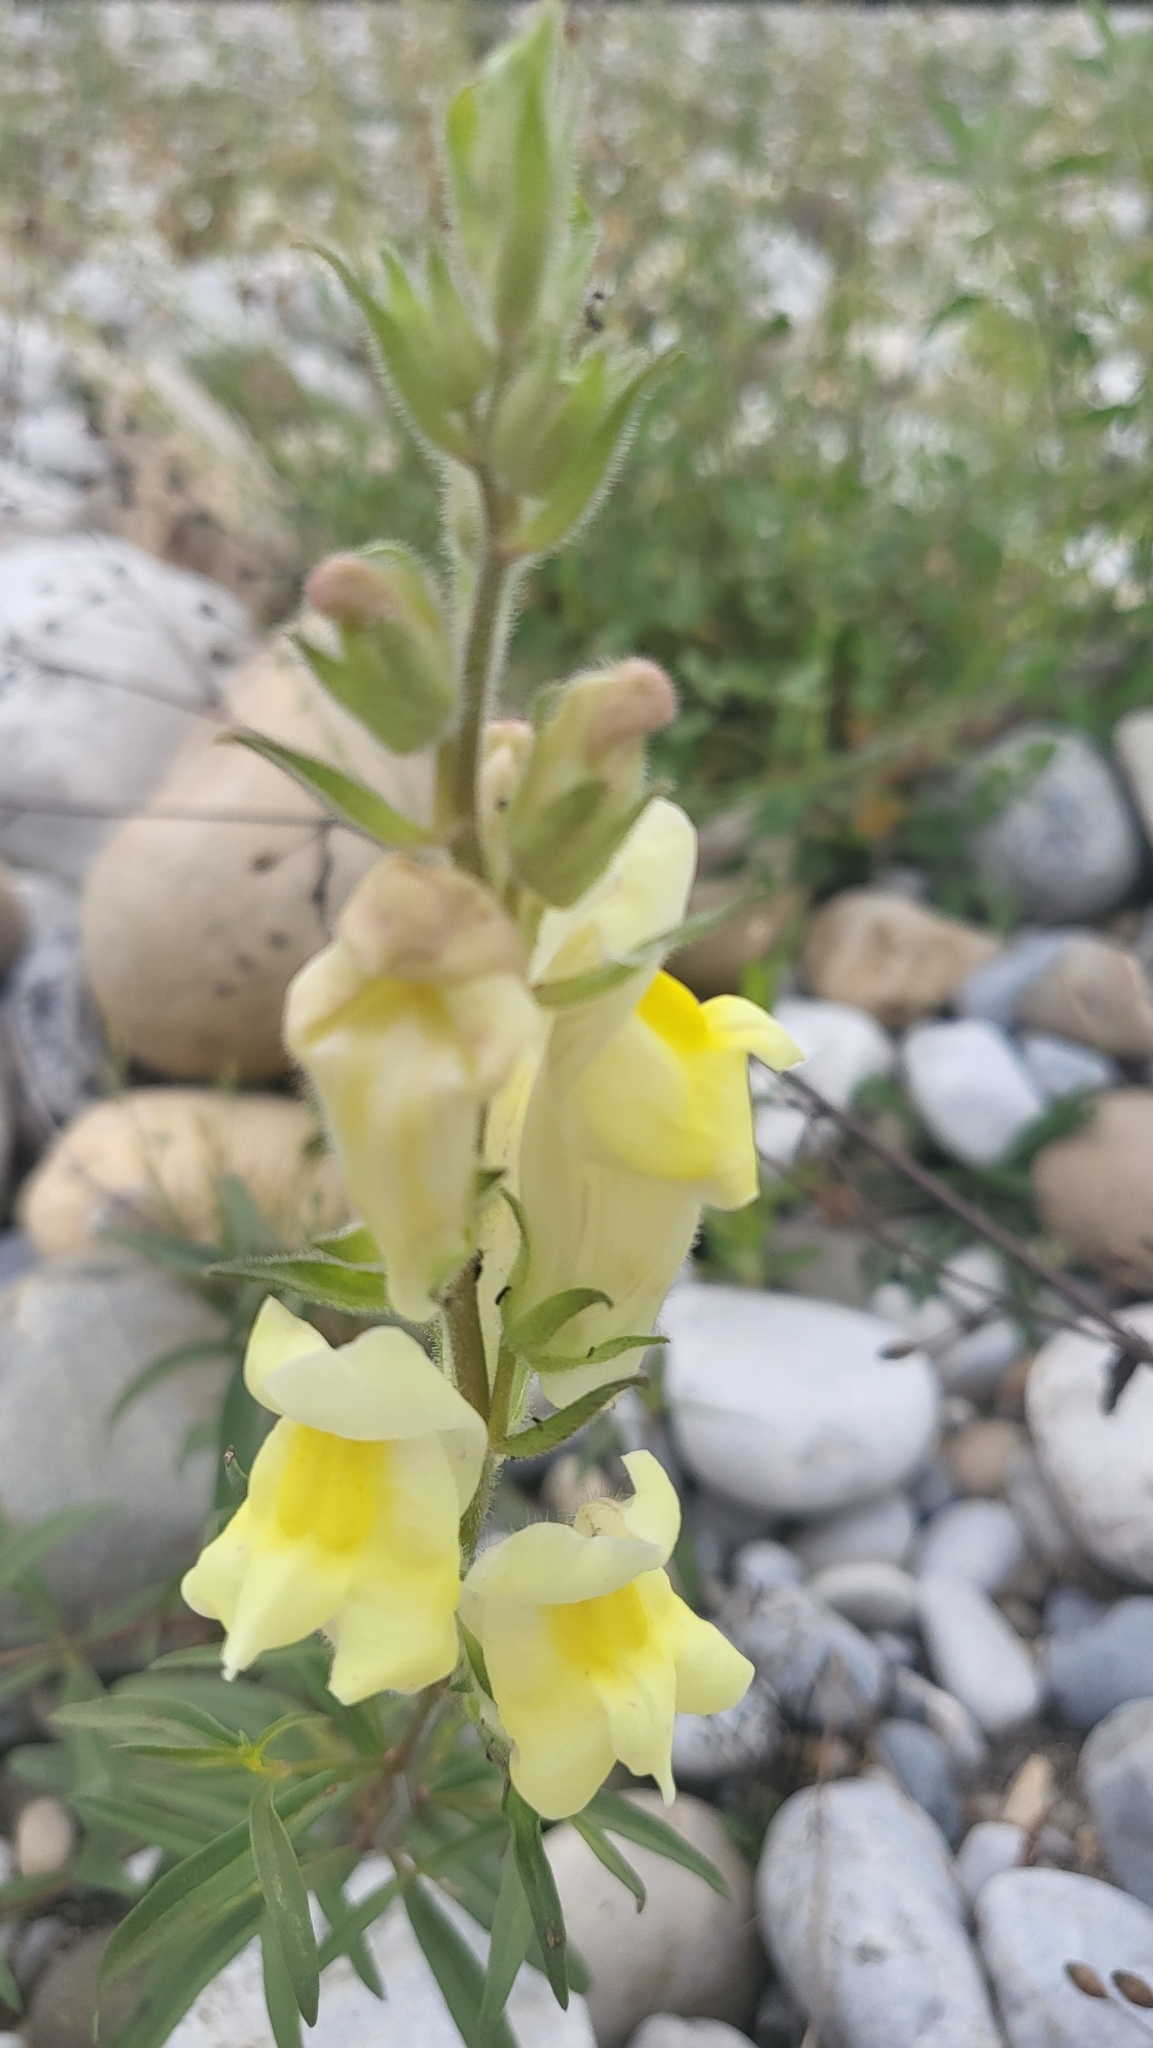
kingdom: Plantae
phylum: Tracheophyta
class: Magnoliopsida
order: Lamiales
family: Plantaginaceae
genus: Antirrhinum
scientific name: Antirrhinum braun-blanquetii
